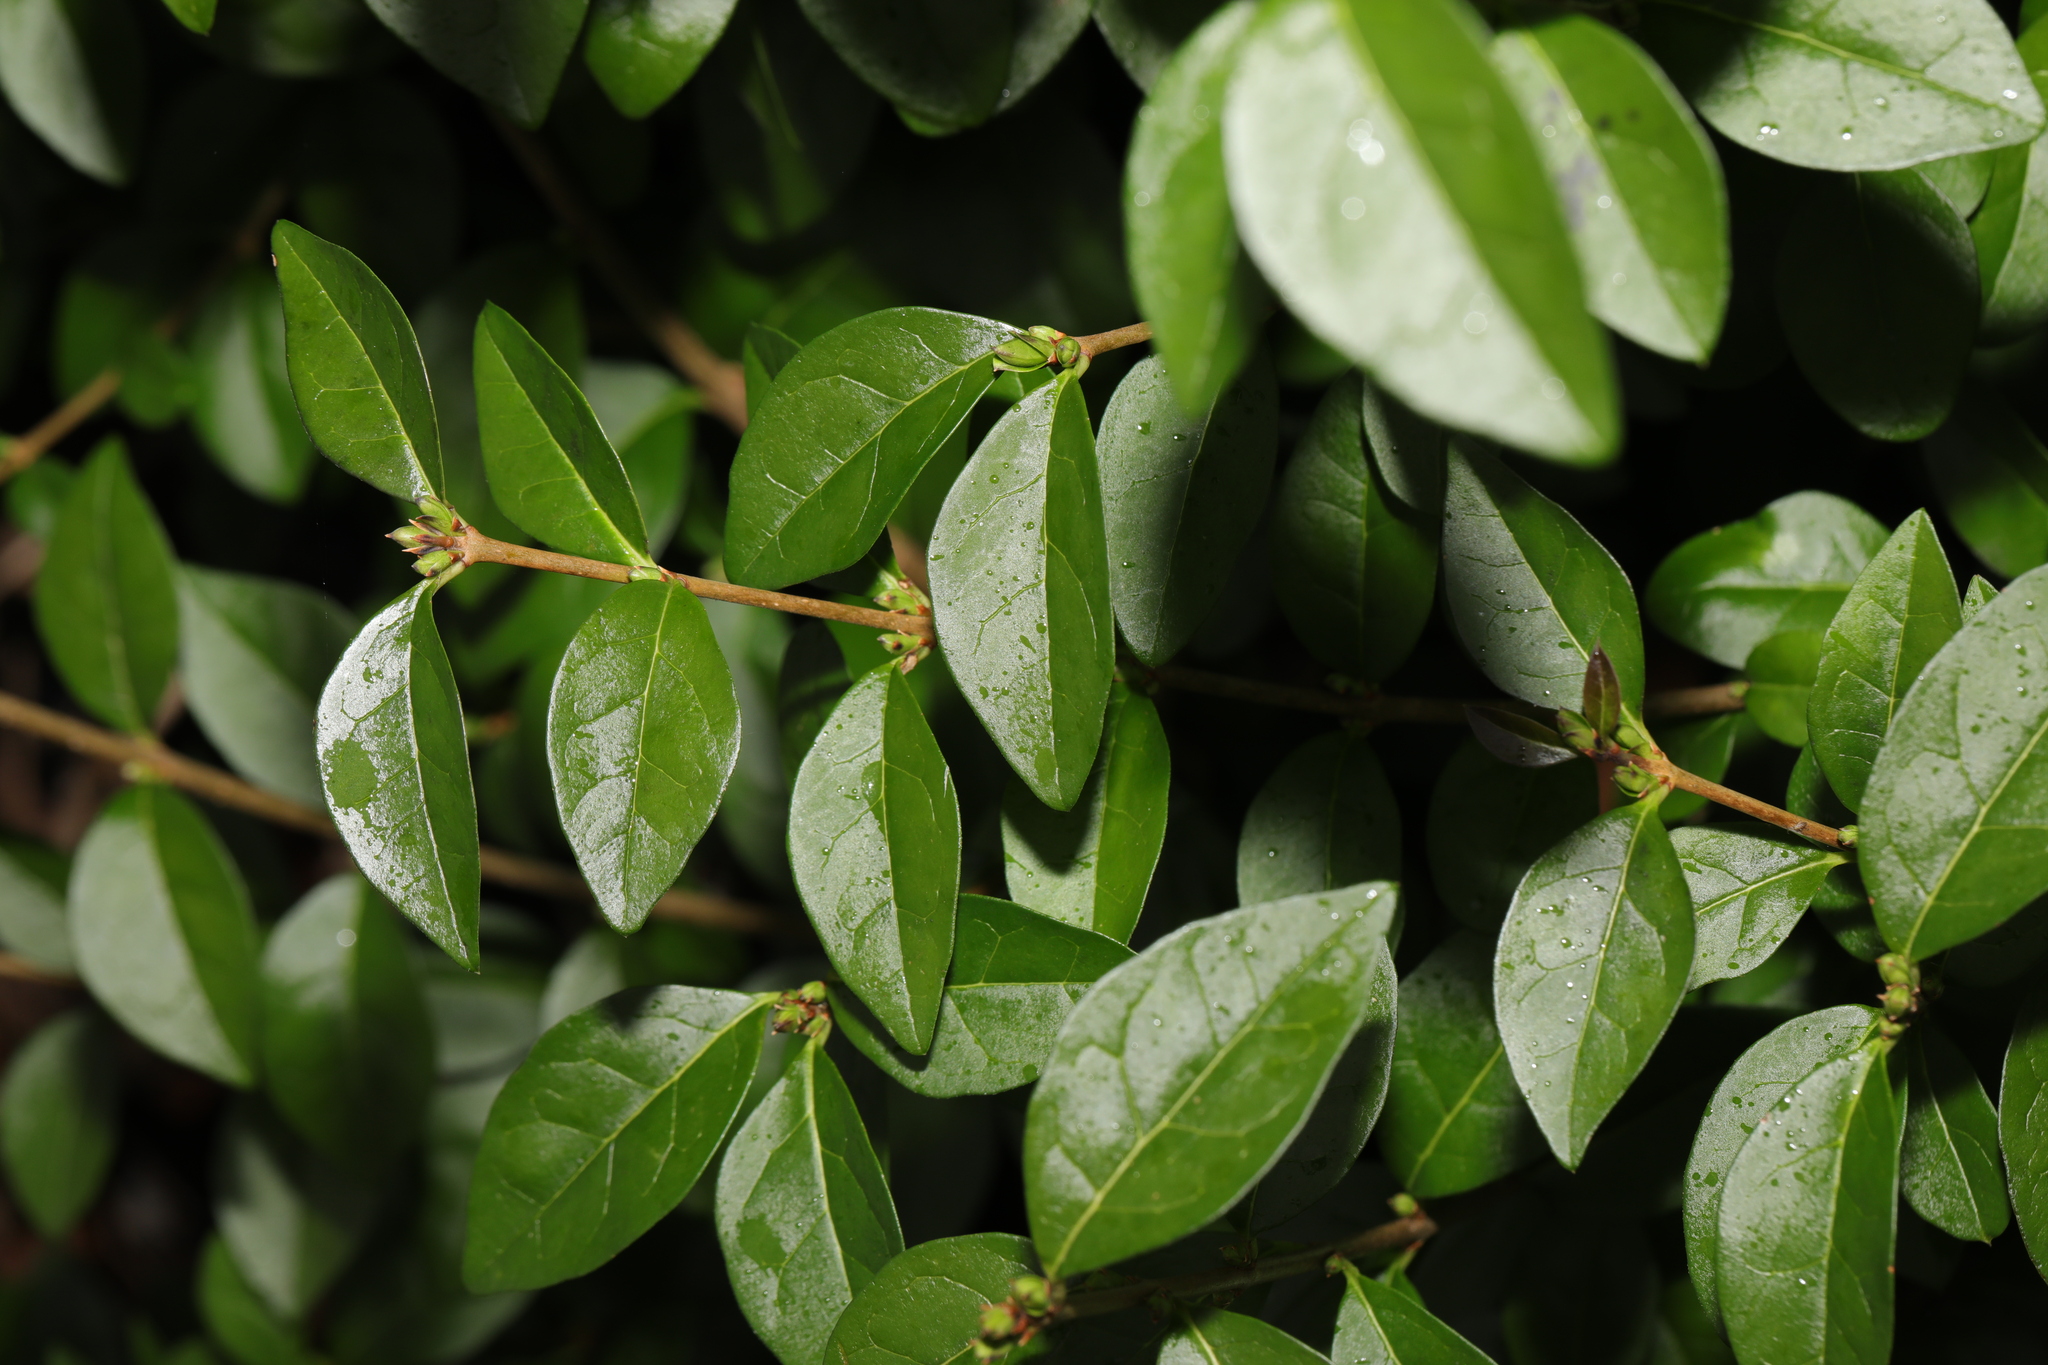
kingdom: Plantae
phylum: Tracheophyta
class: Magnoliopsida
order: Lamiales
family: Oleaceae
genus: Ligustrum
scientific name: Ligustrum ovalifolium
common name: California privet
